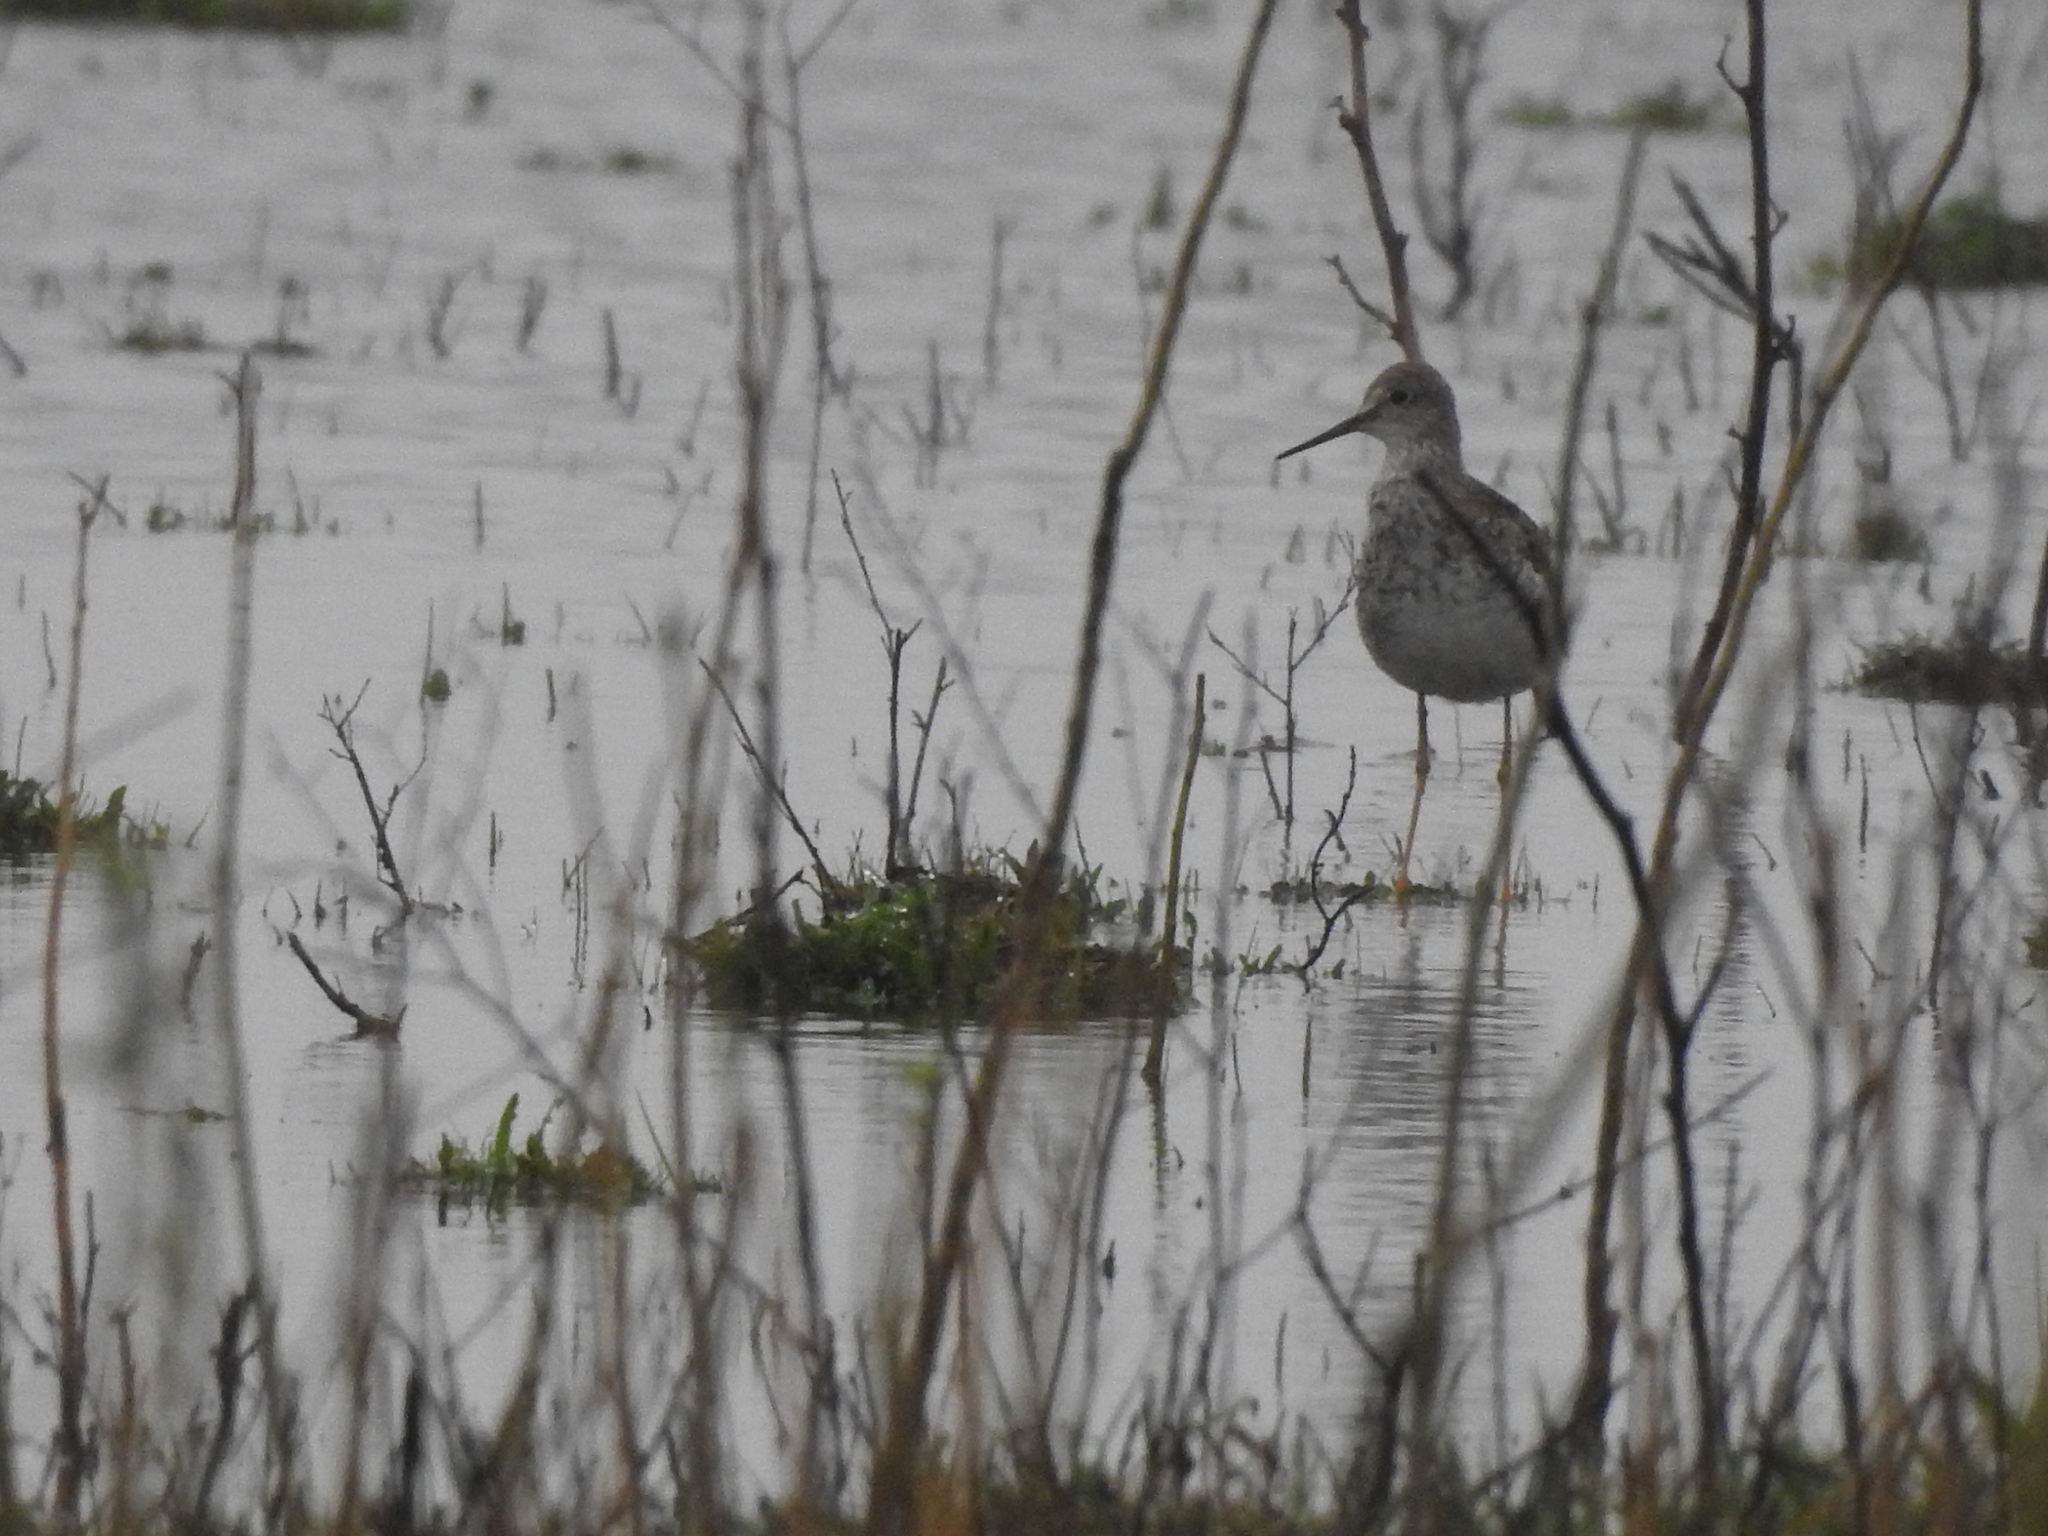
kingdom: Animalia
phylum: Chordata
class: Aves
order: Charadriiformes
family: Scolopacidae
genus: Tringa
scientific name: Tringa flavipes
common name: Lesser yellowlegs
